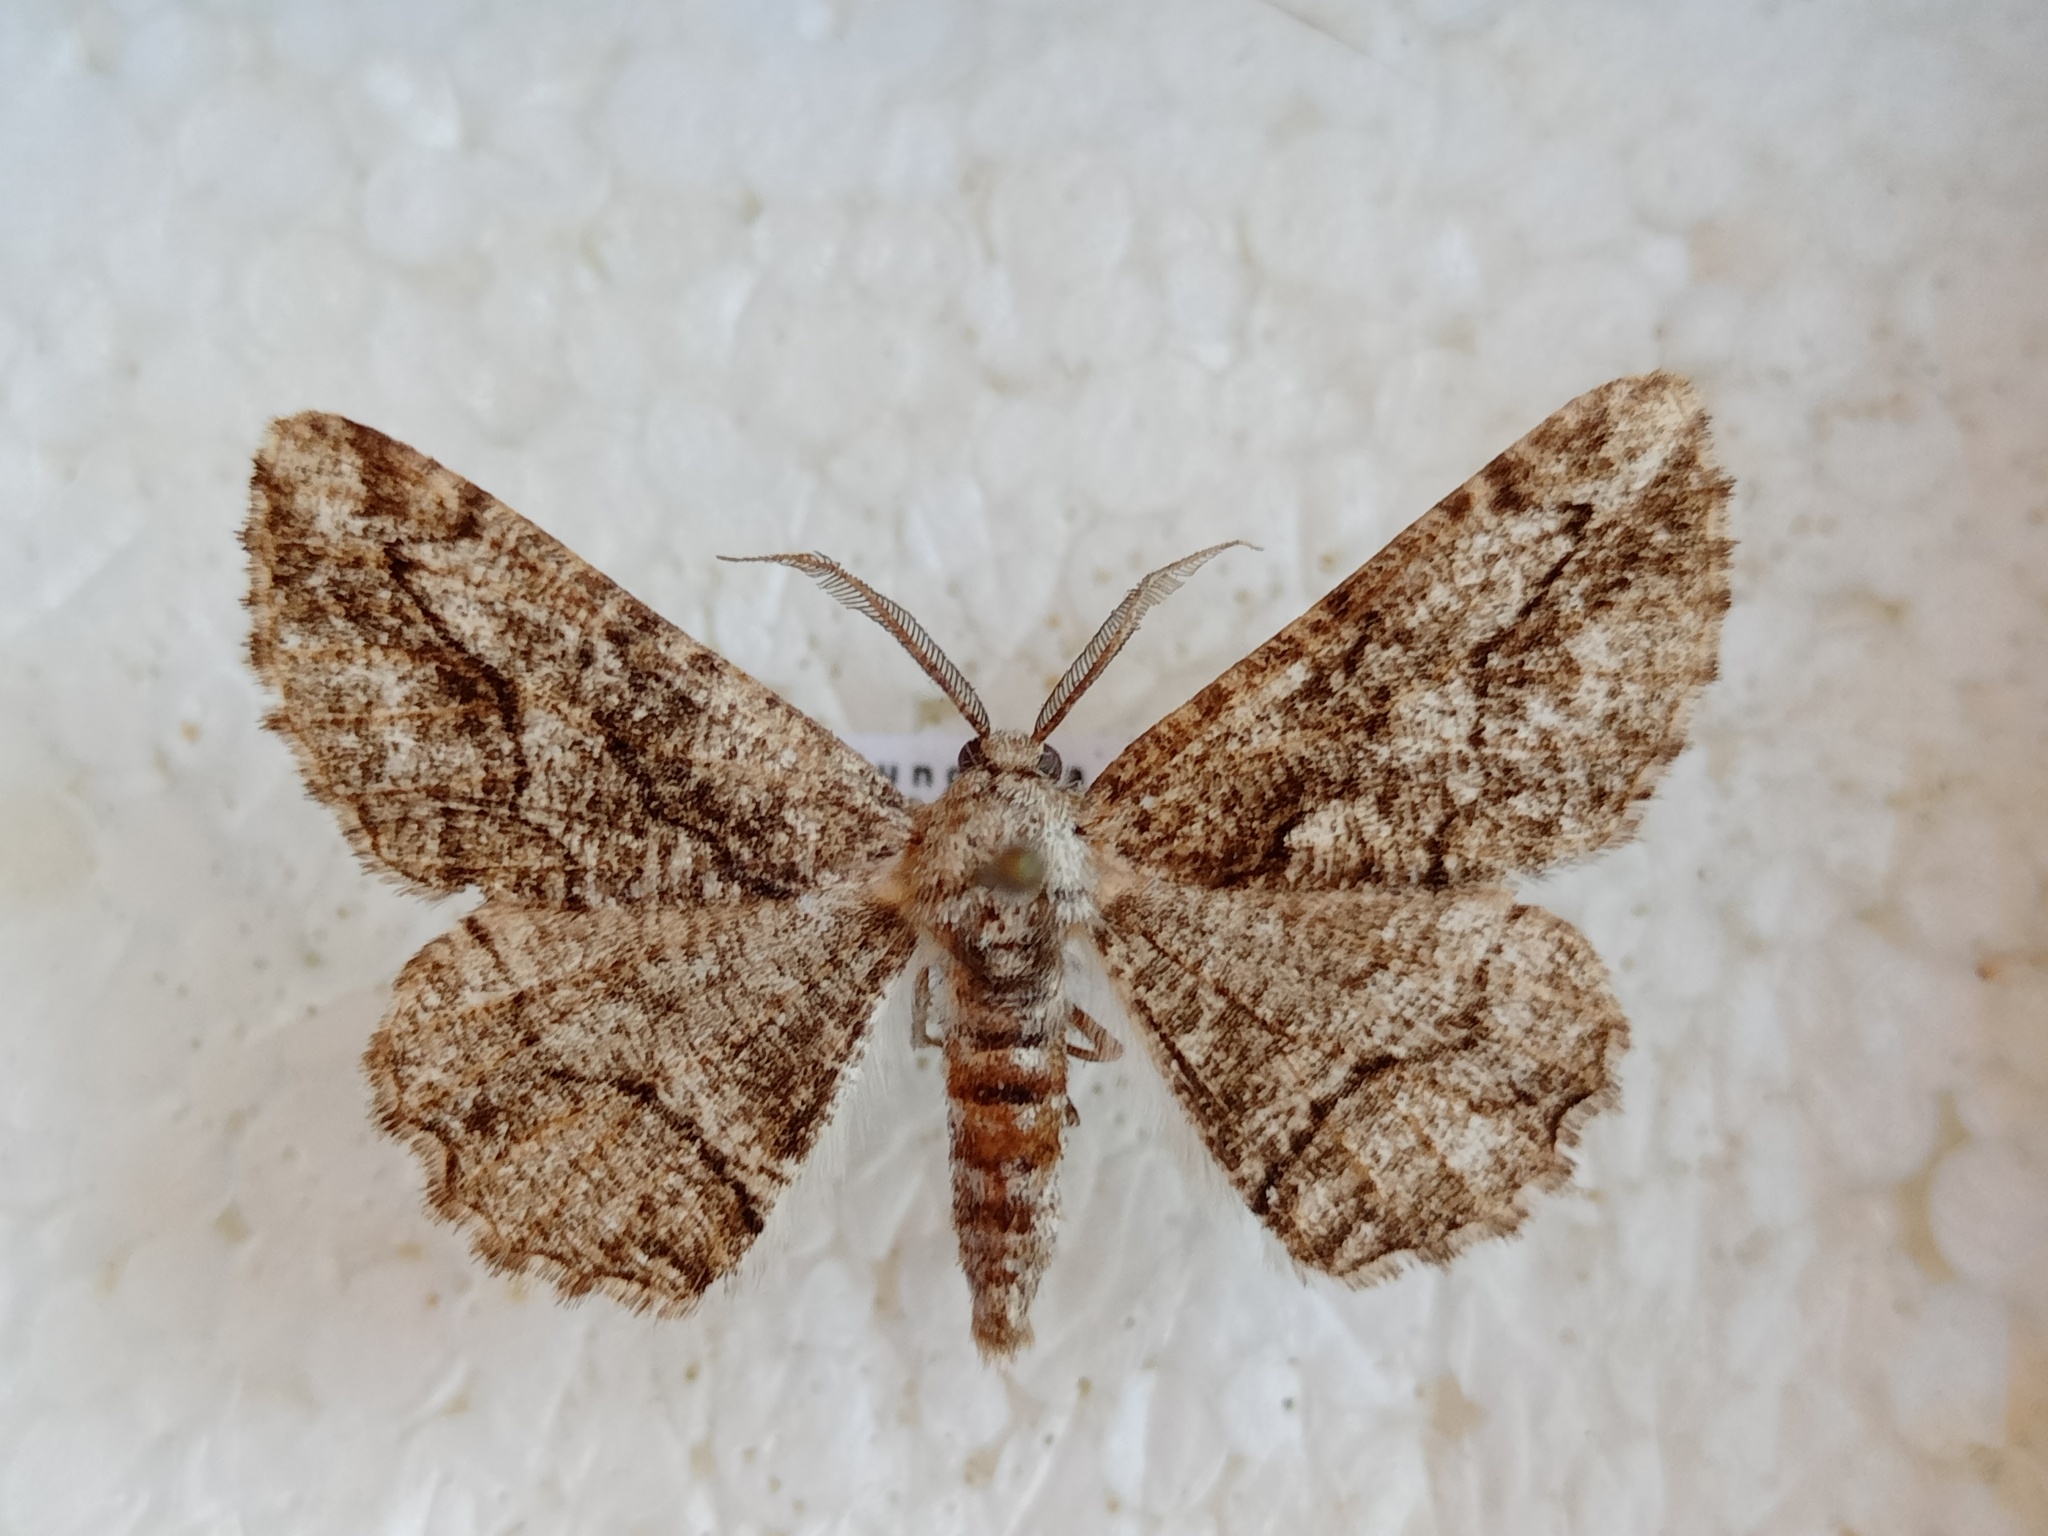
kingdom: Animalia
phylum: Arthropoda
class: Insecta
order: Lepidoptera
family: Geometridae
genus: Synopsia
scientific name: Synopsia sociaria
